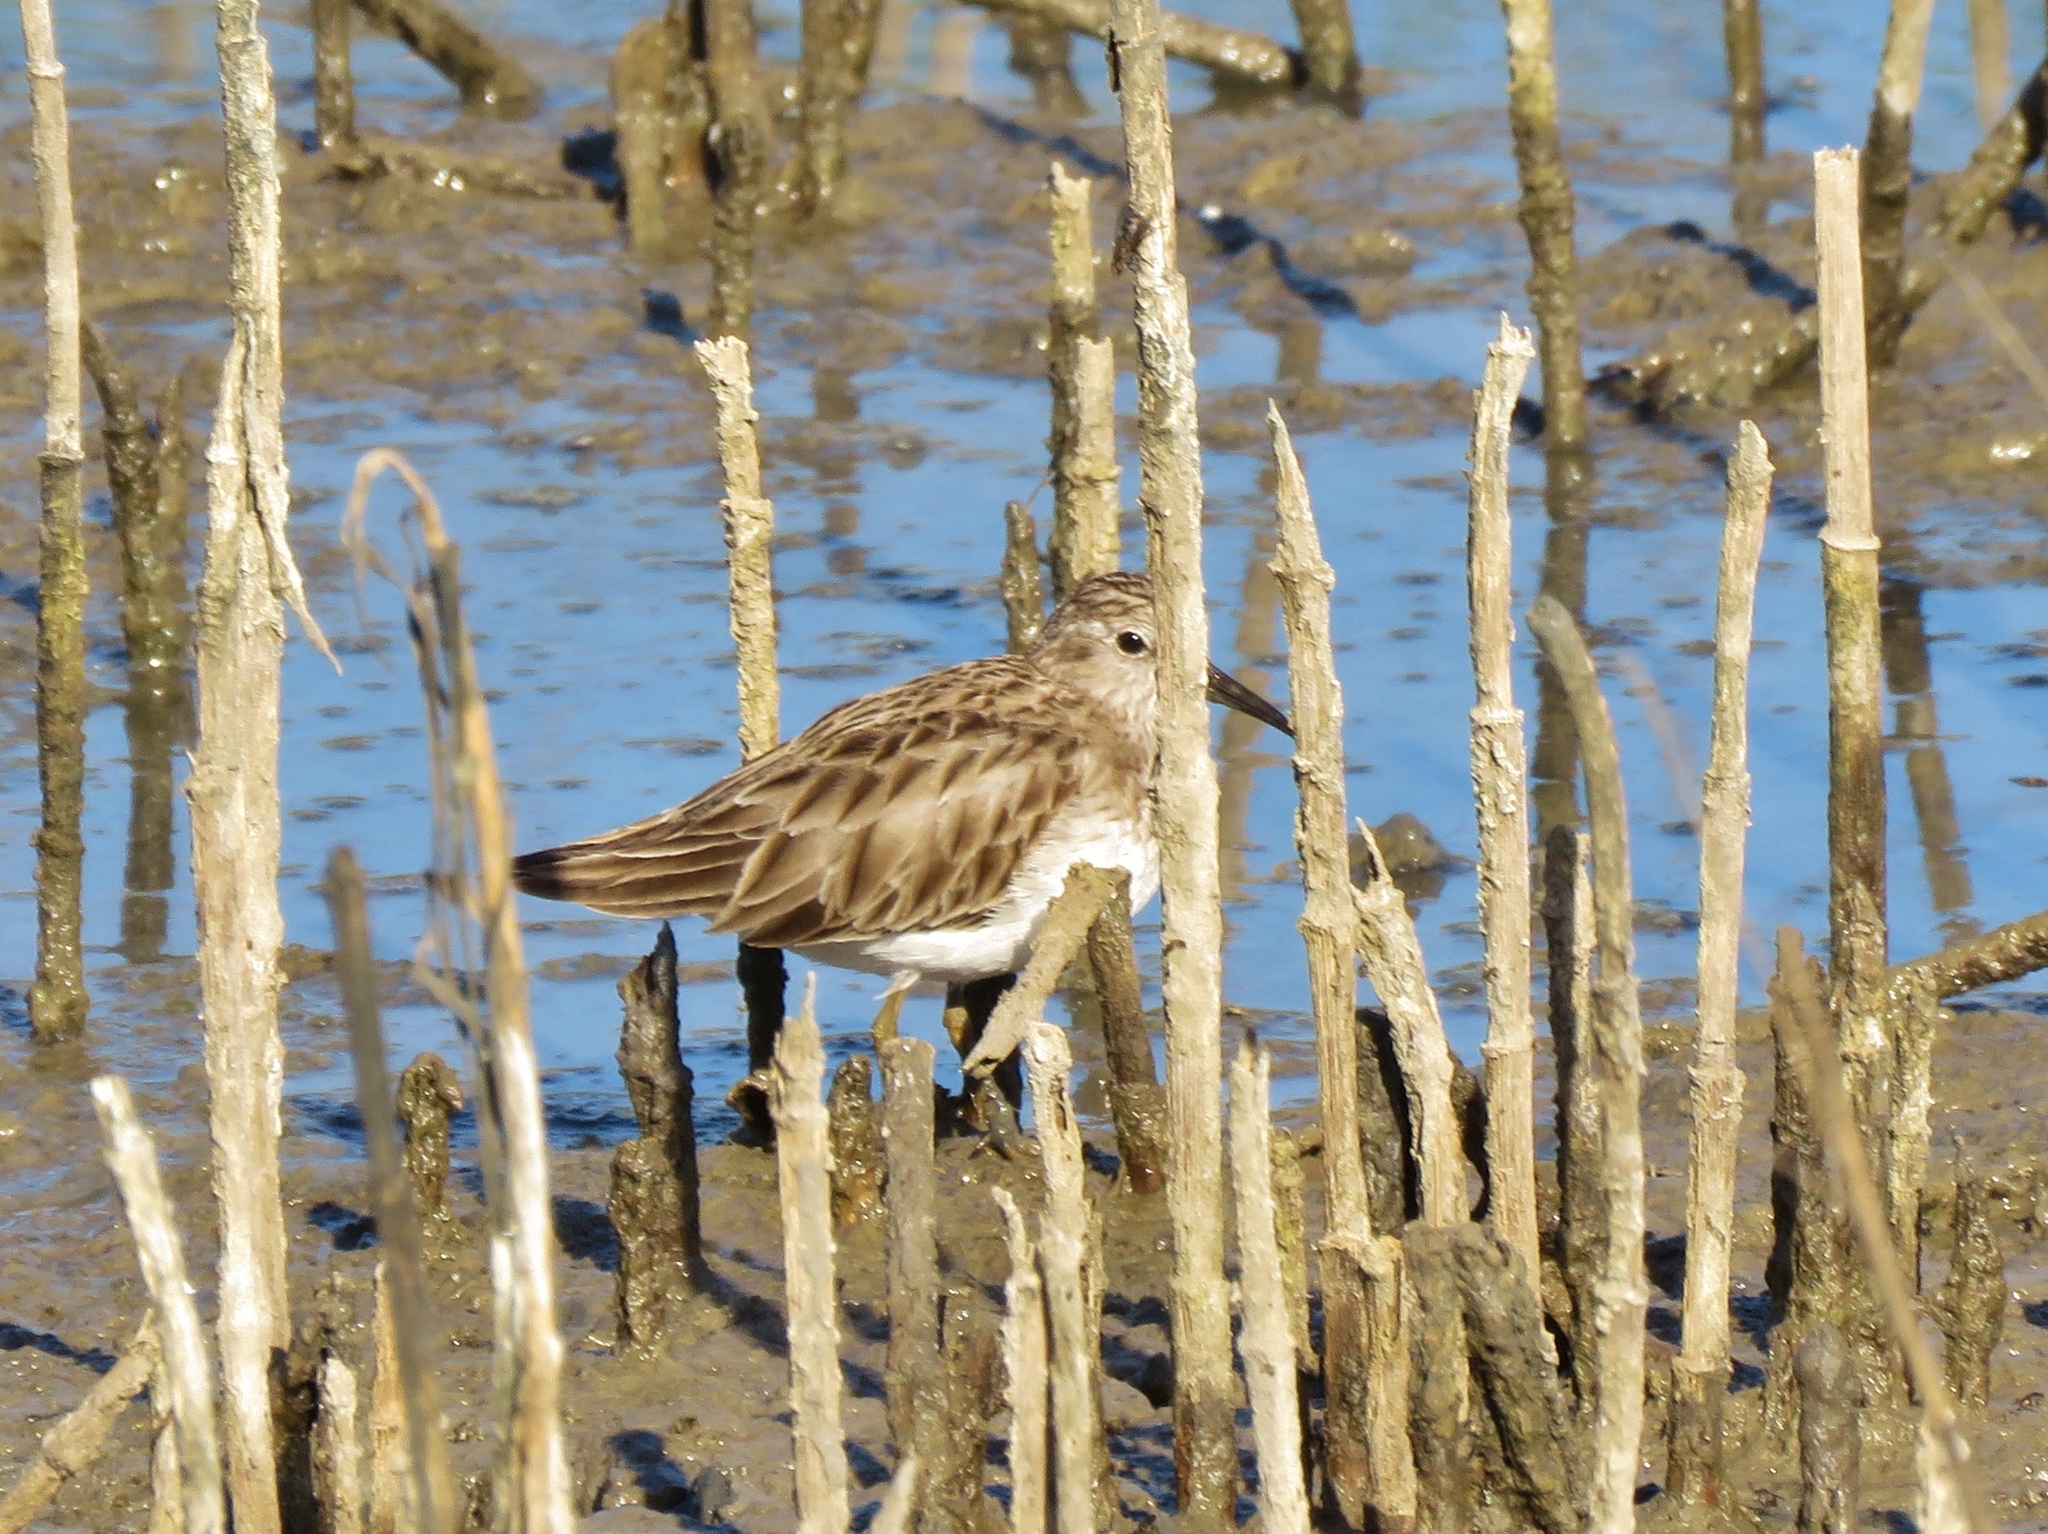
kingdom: Animalia
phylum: Chordata
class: Aves
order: Charadriiformes
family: Scolopacidae
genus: Calidris
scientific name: Calidris minutilla
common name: Least sandpiper
